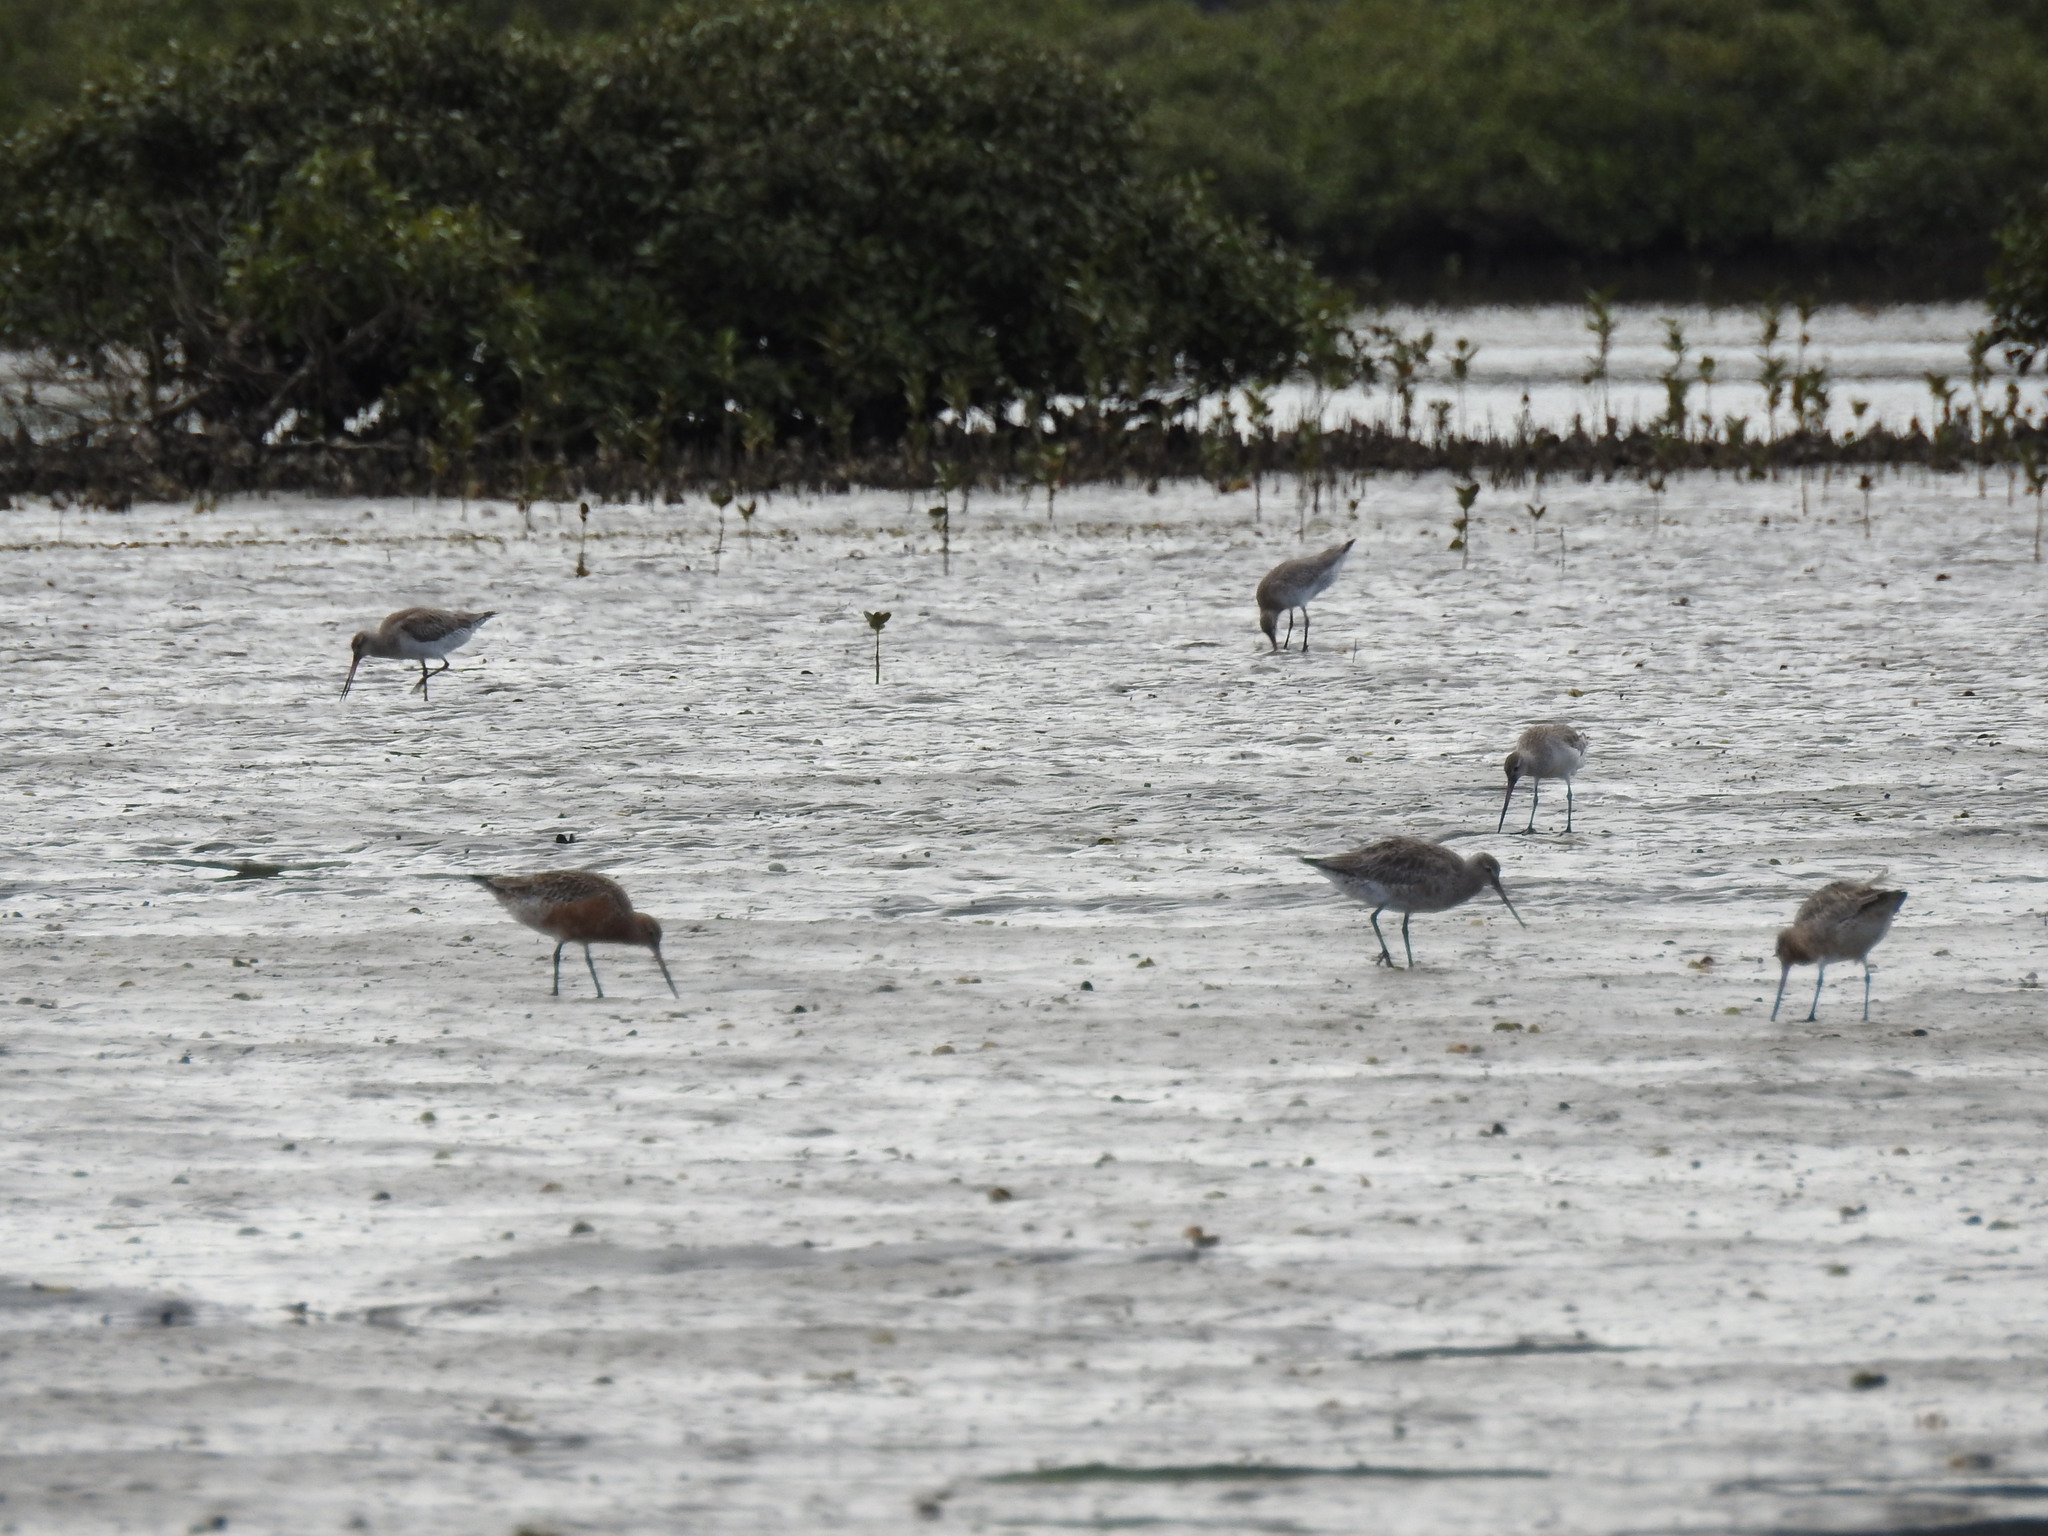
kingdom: Animalia
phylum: Chordata
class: Aves
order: Charadriiformes
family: Scolopacidae
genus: Limosa
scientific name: Limosa lapponica
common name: Bar-tailed godwit
